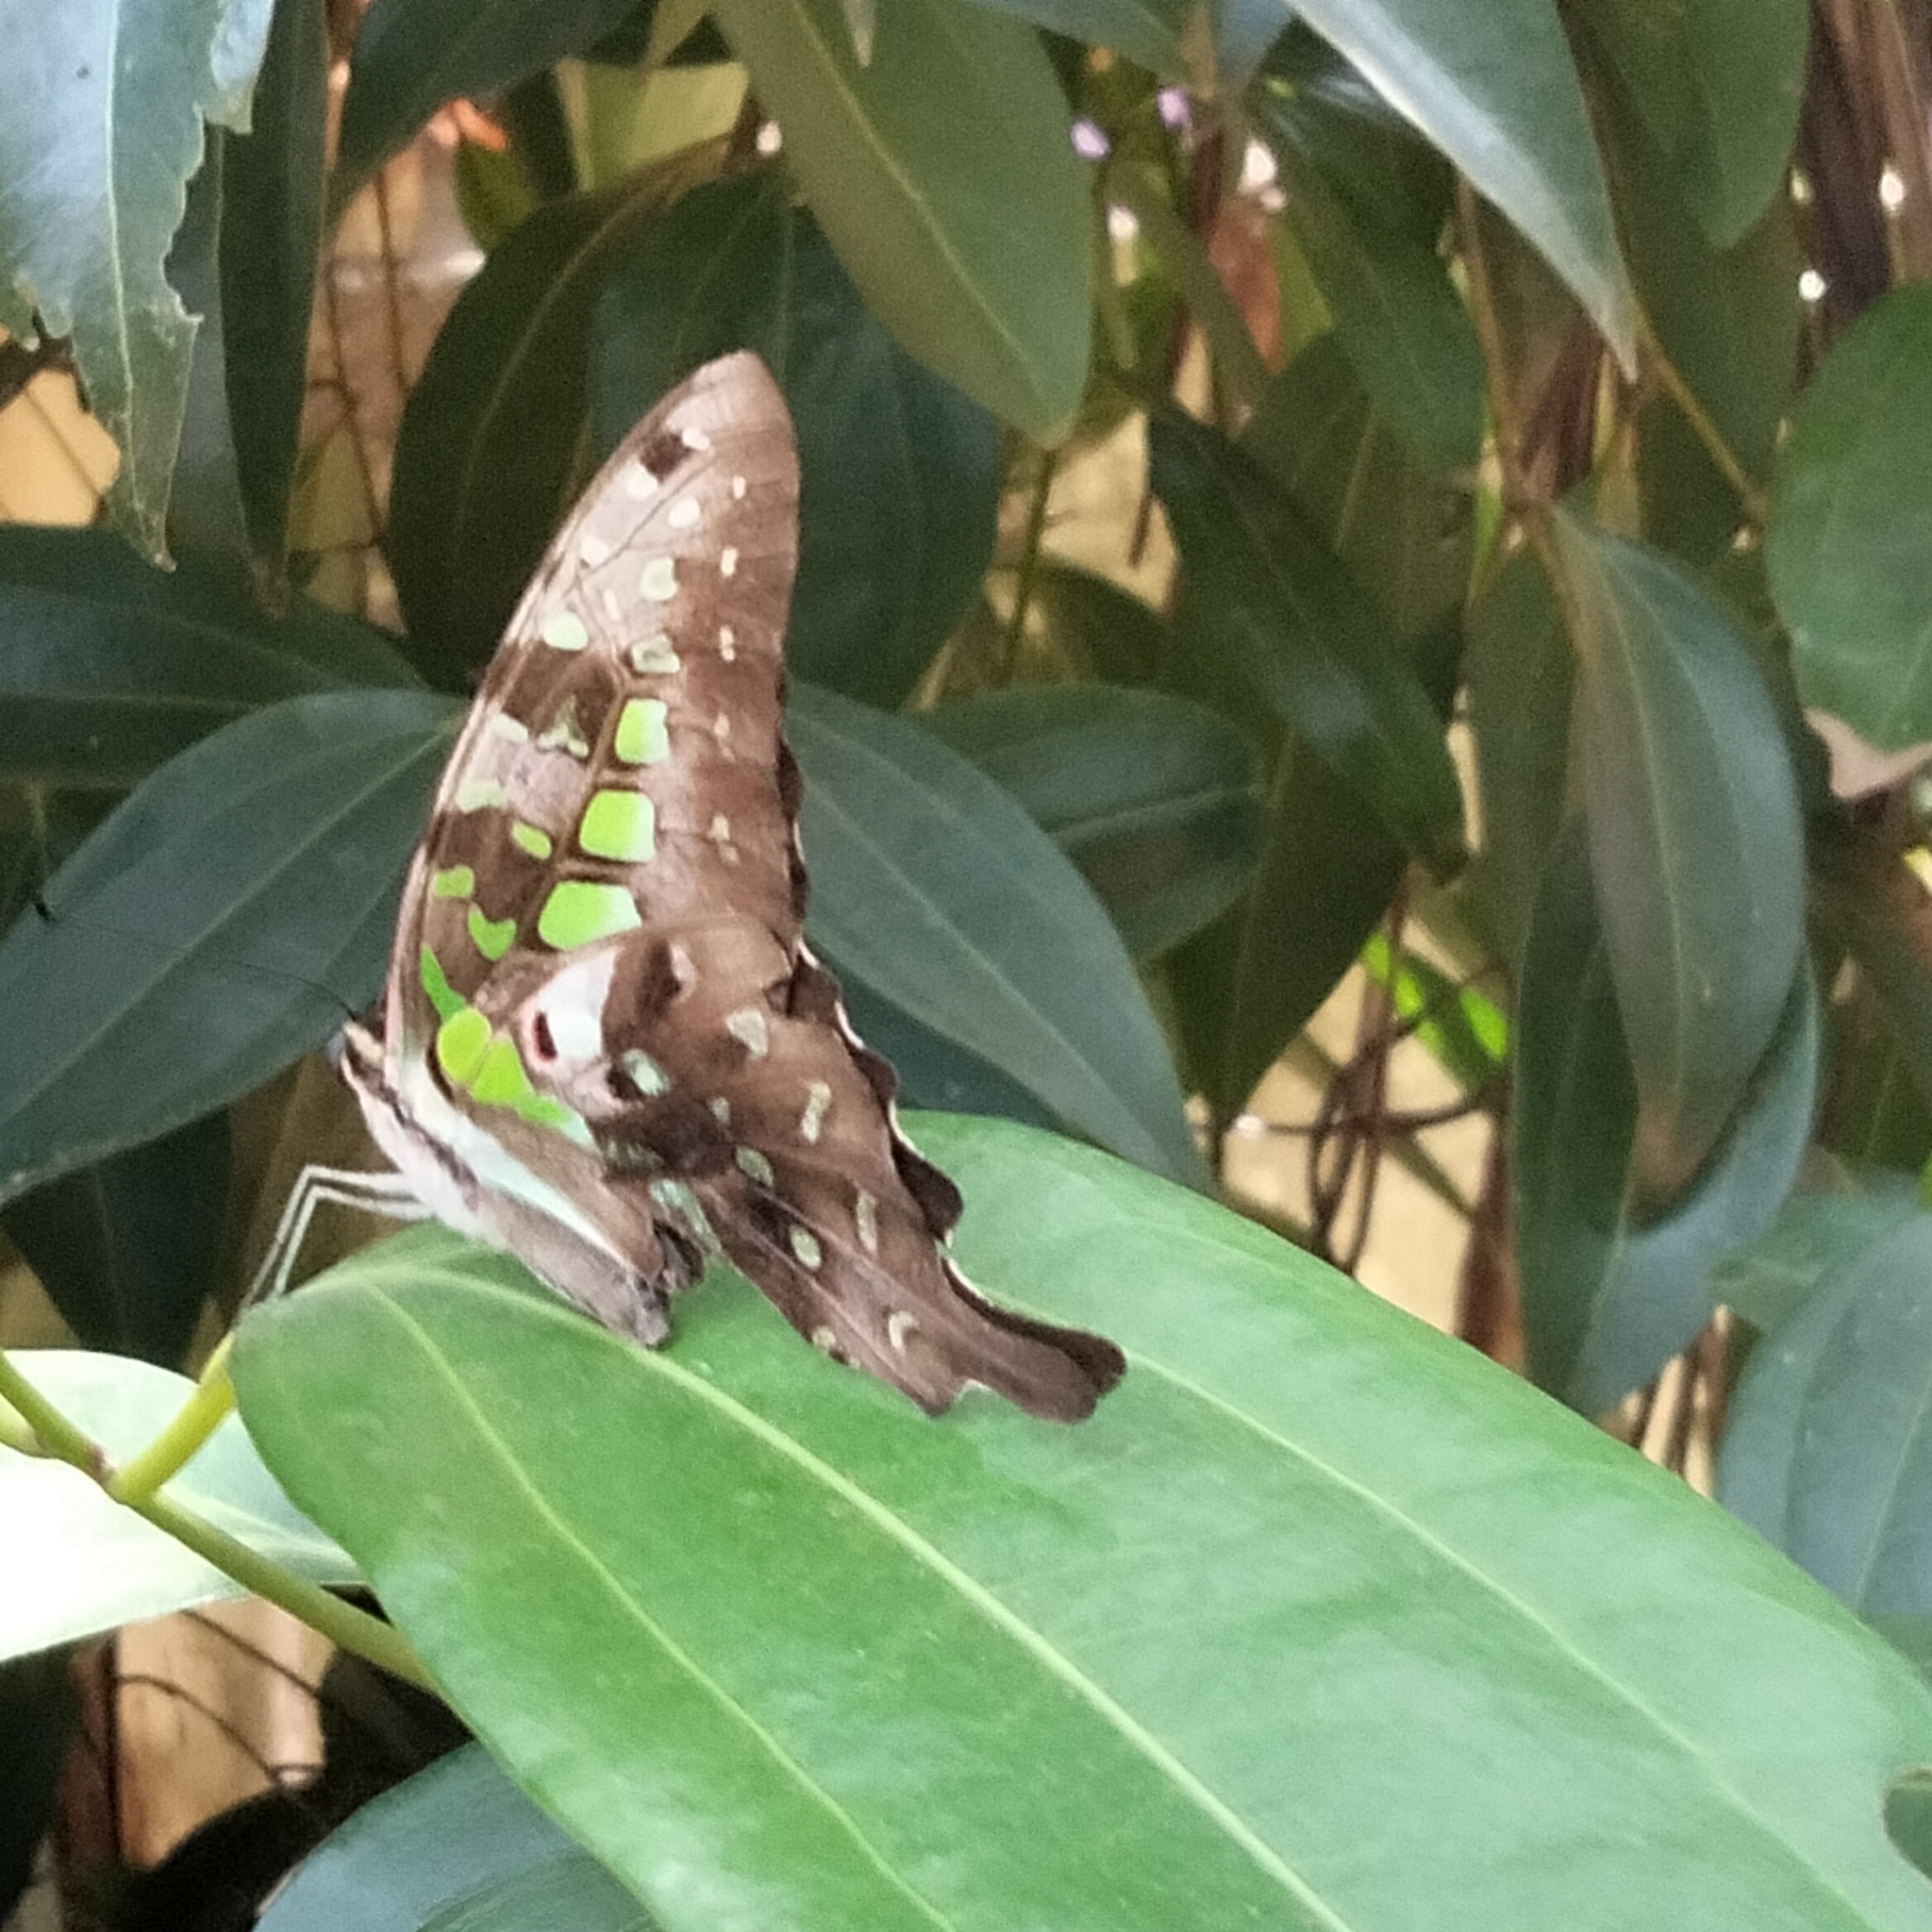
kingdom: Animalia
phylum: Arthropoda
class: Insecta
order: Lepidoptera
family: Papilionidae
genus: Graphium
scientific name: Graphium agamemnon
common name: Tailed jay
